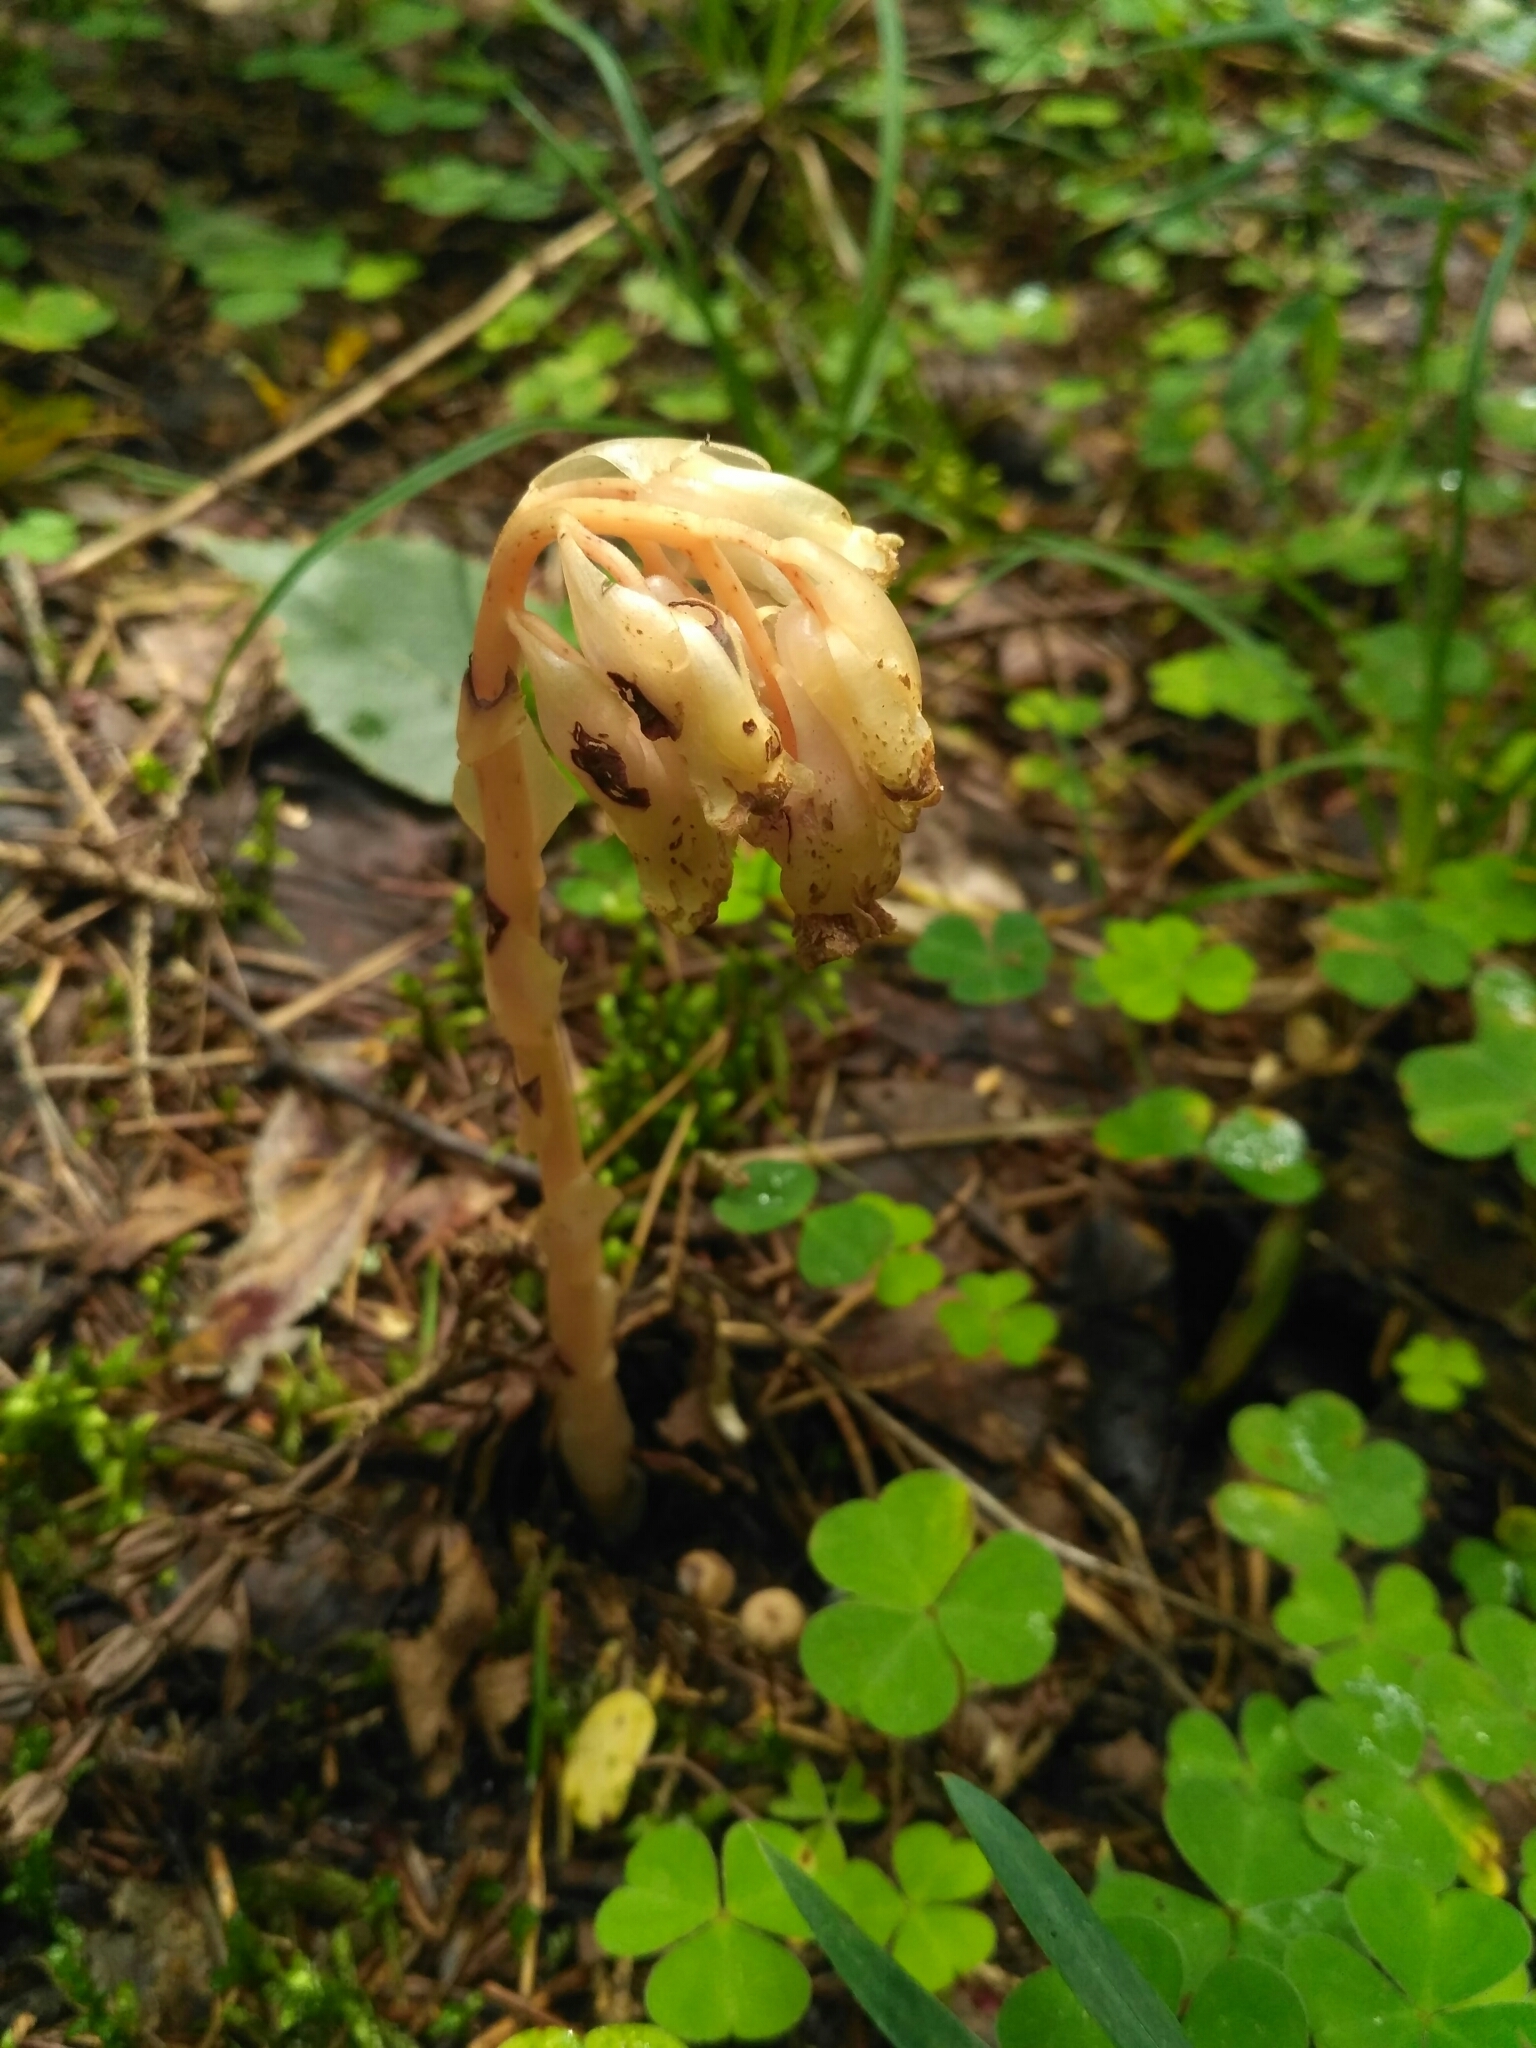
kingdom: Plantae
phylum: Tracheophyta
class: Magnoliopsida
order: Ericales
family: Ericaceae
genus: Hypopitys
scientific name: Hypopitys monotropa
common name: Yellow bird's-nest
